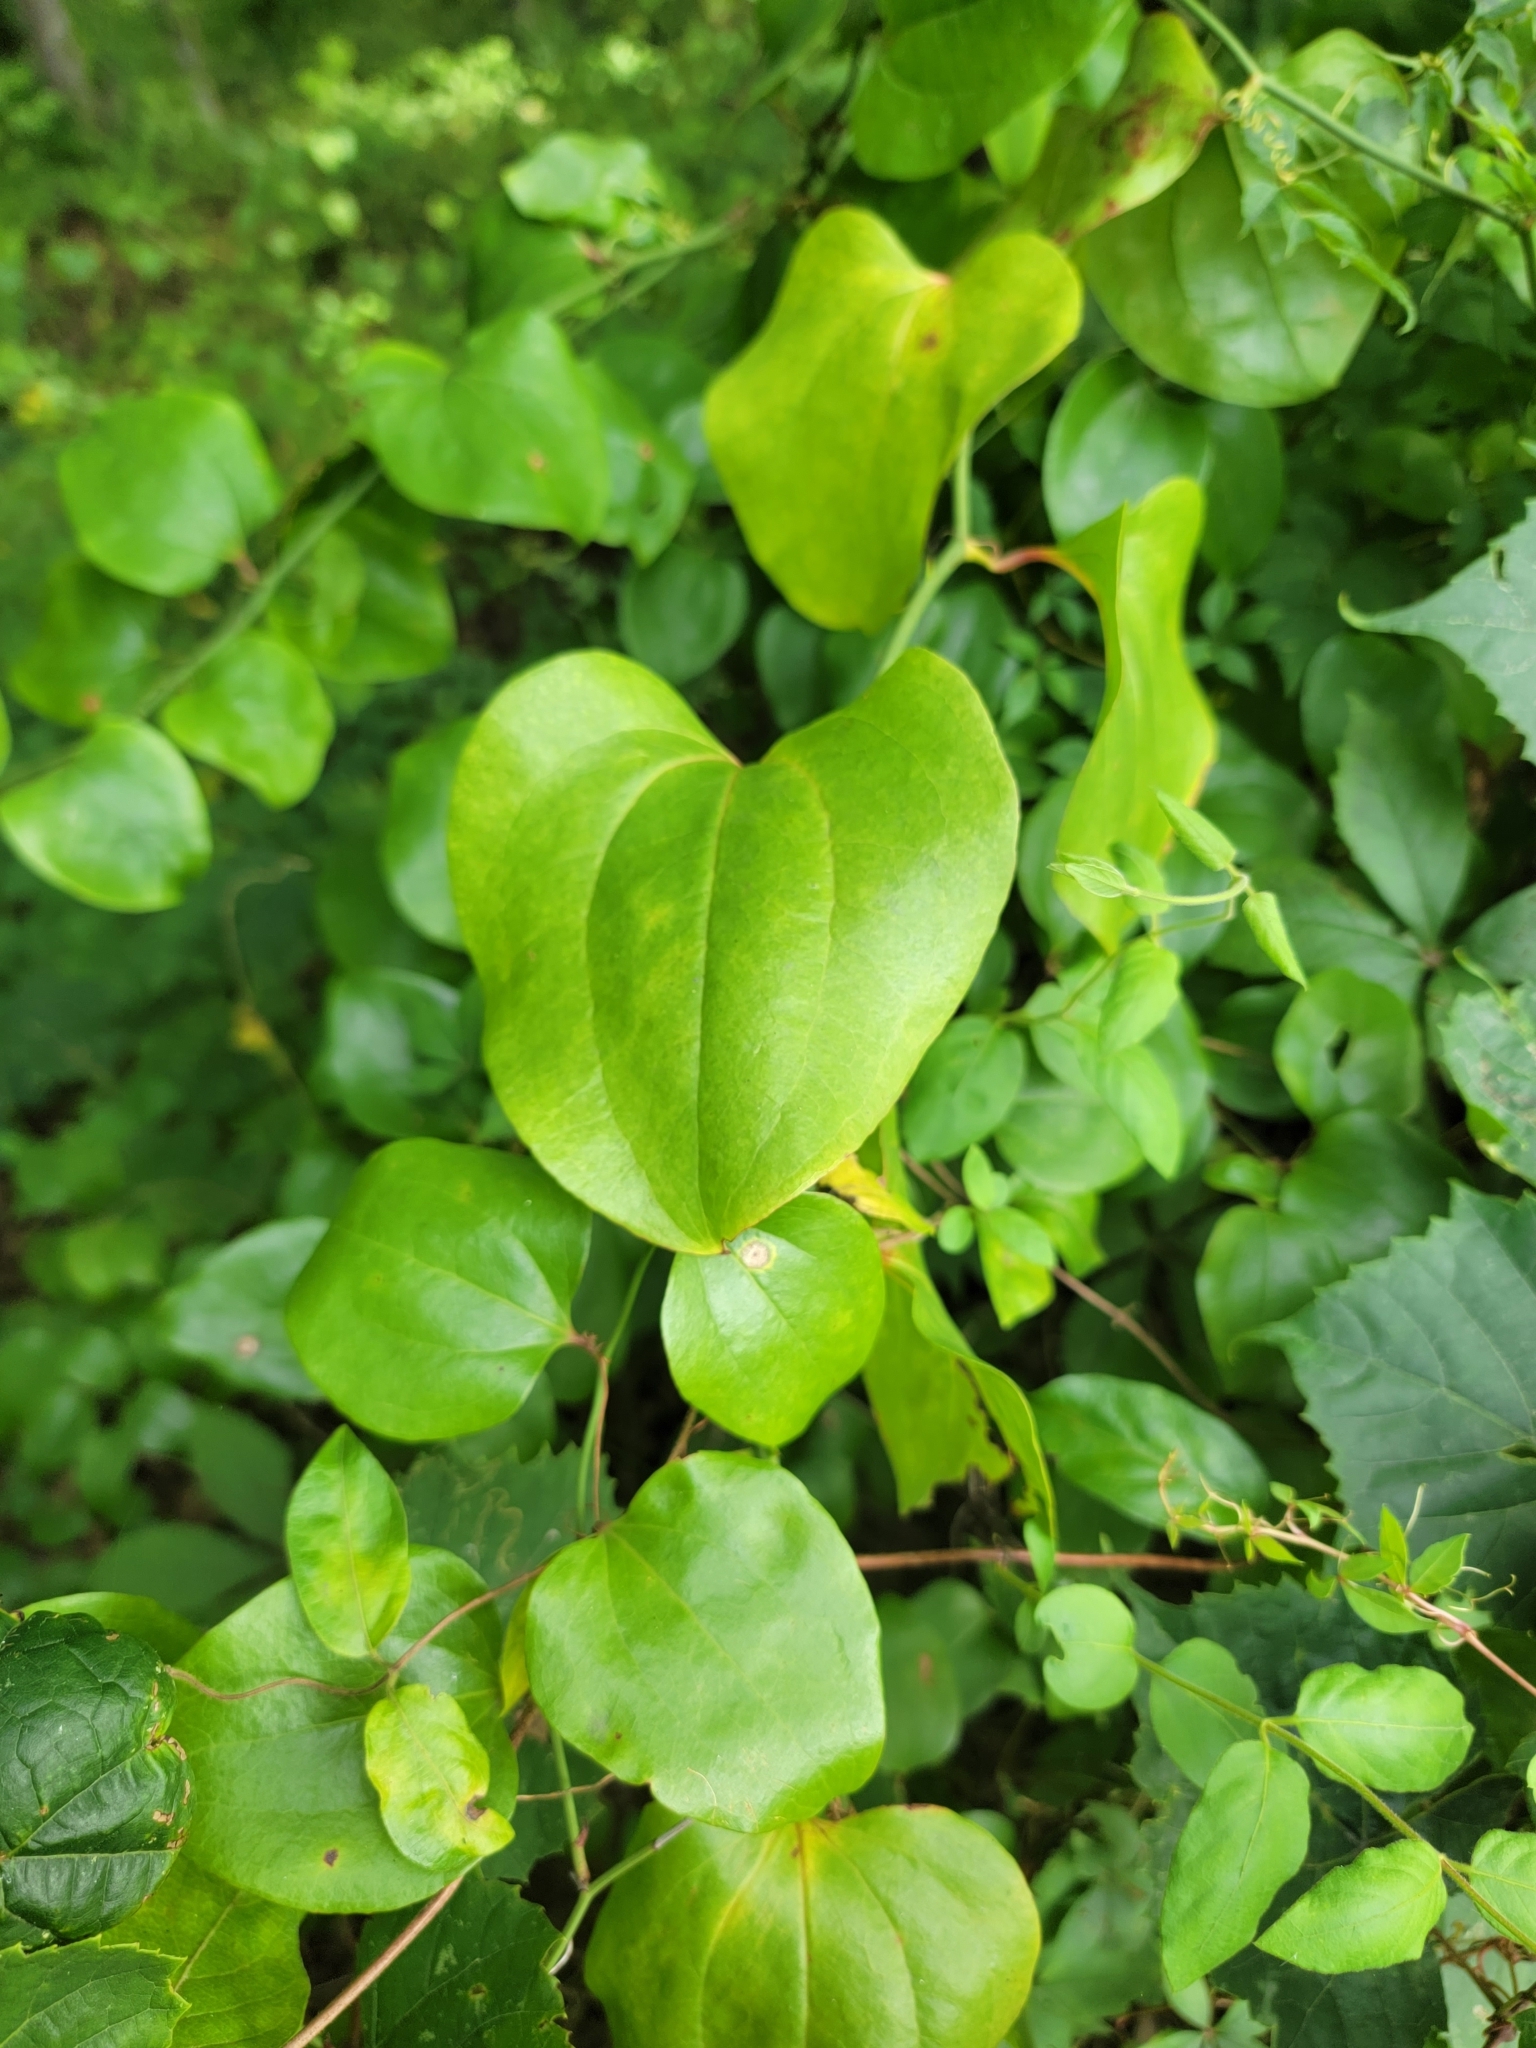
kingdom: Plantae
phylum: Tracheophyta
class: Liliopsida
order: Liliales
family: Smilacaceae
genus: Smilax
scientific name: Smilax rotundifolia
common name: Bullbriar
